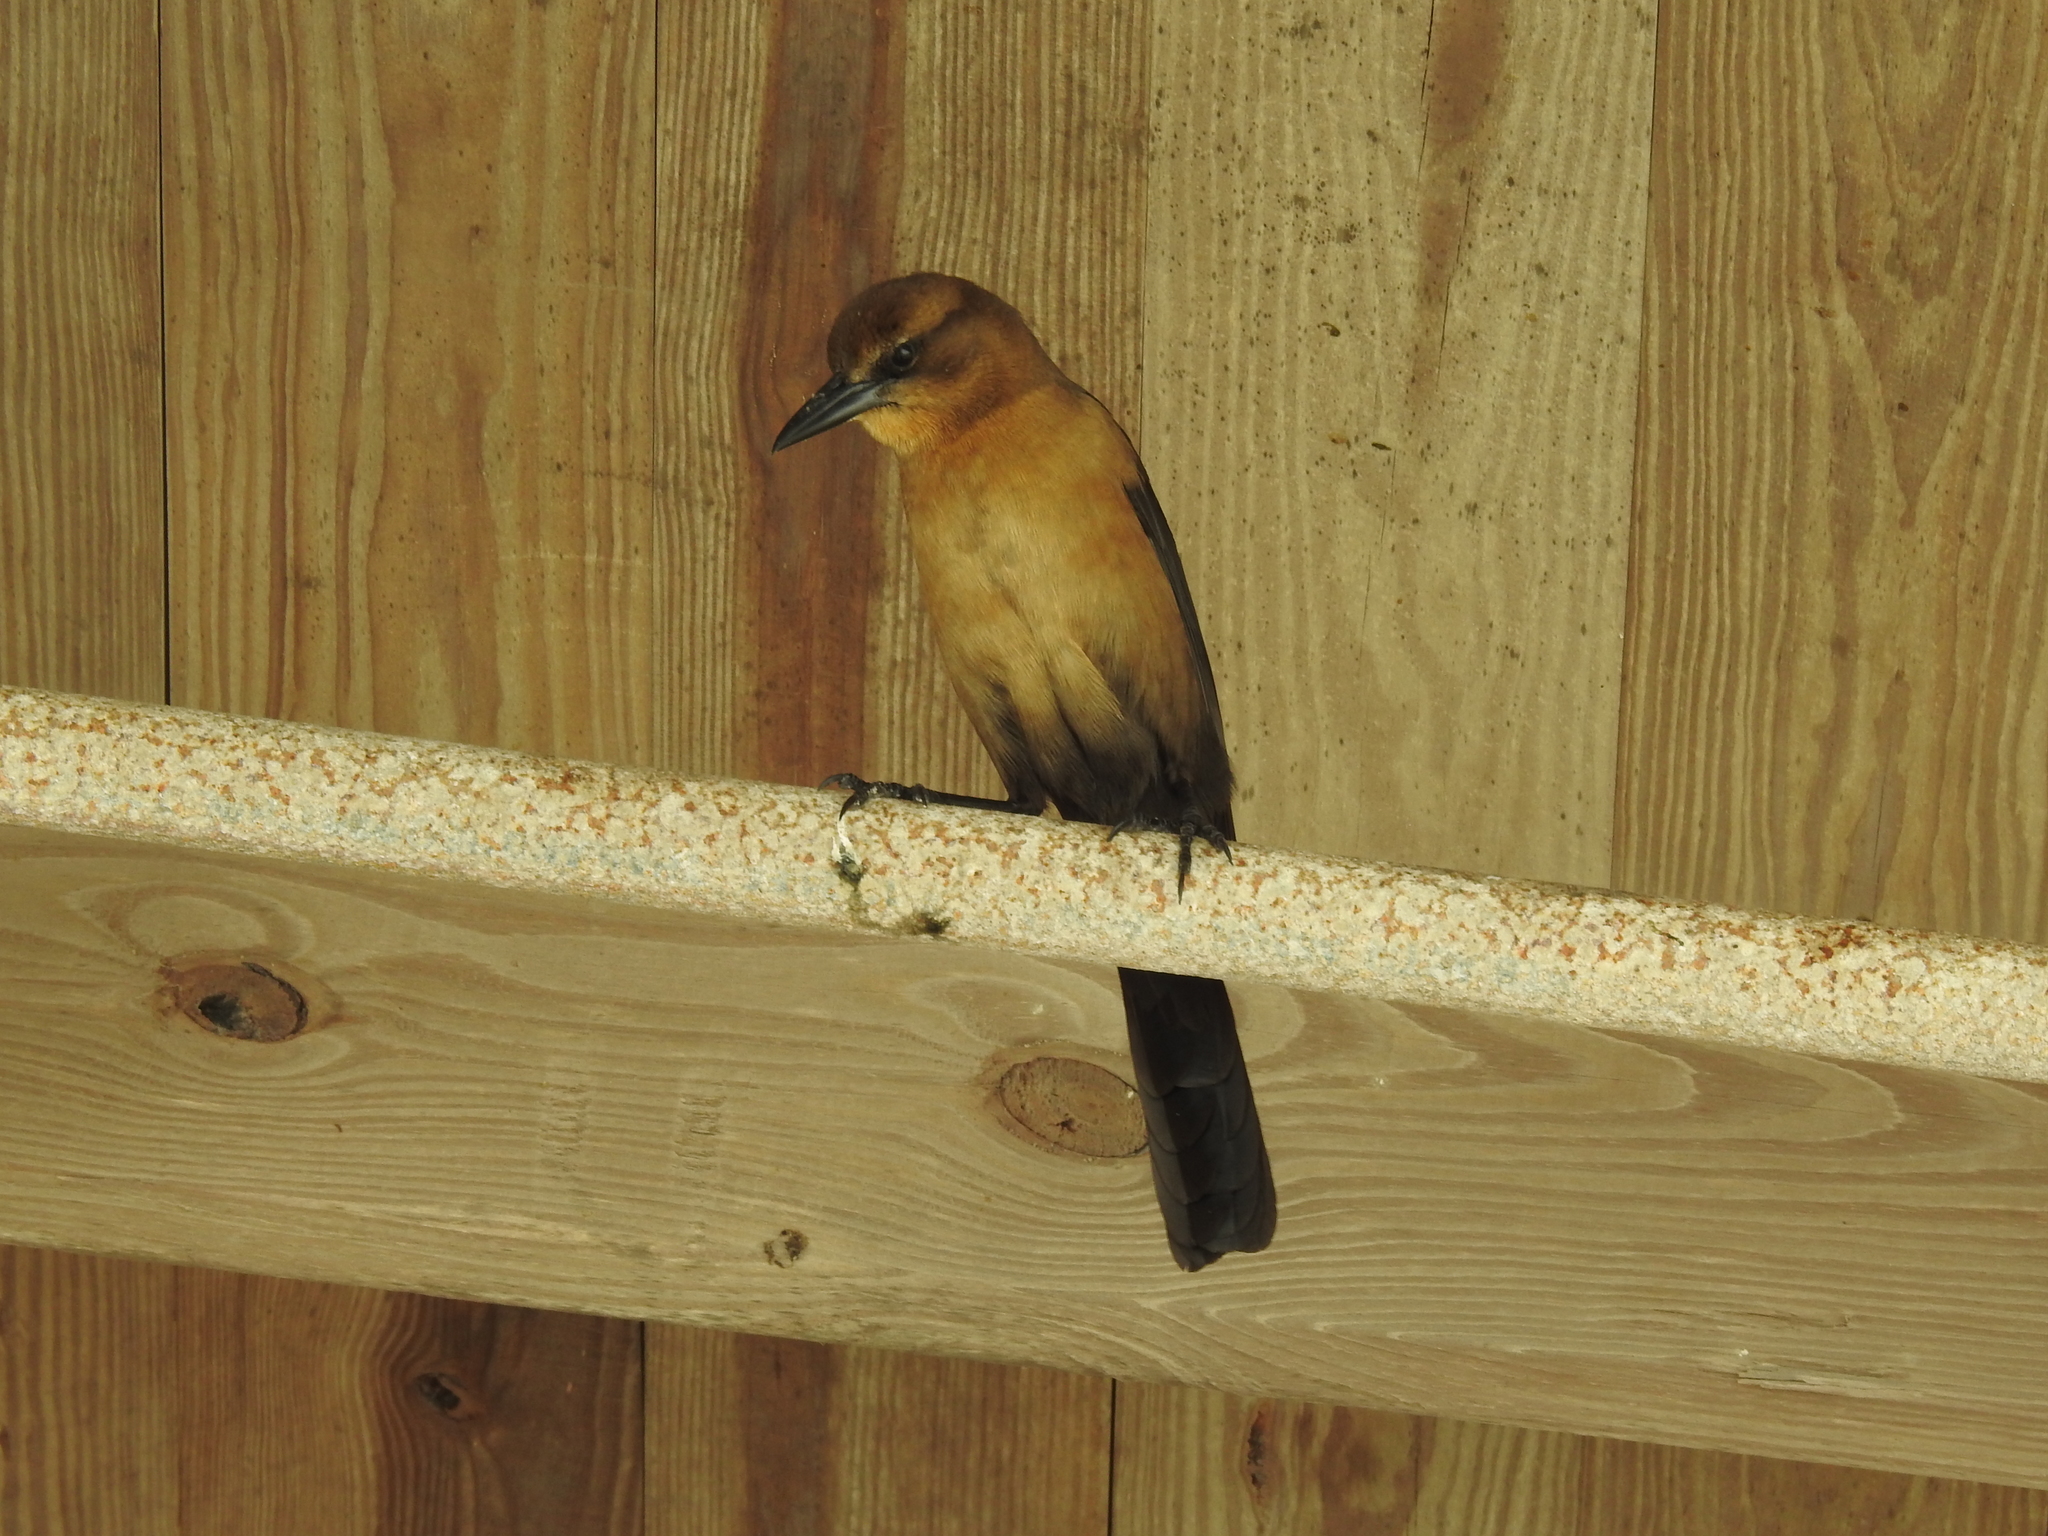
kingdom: Animalia
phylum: Chordata
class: Aves
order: Passeriformes
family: Icteridae
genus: Quiscalus
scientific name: Quiscalus major
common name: Boat-tailed grackle
